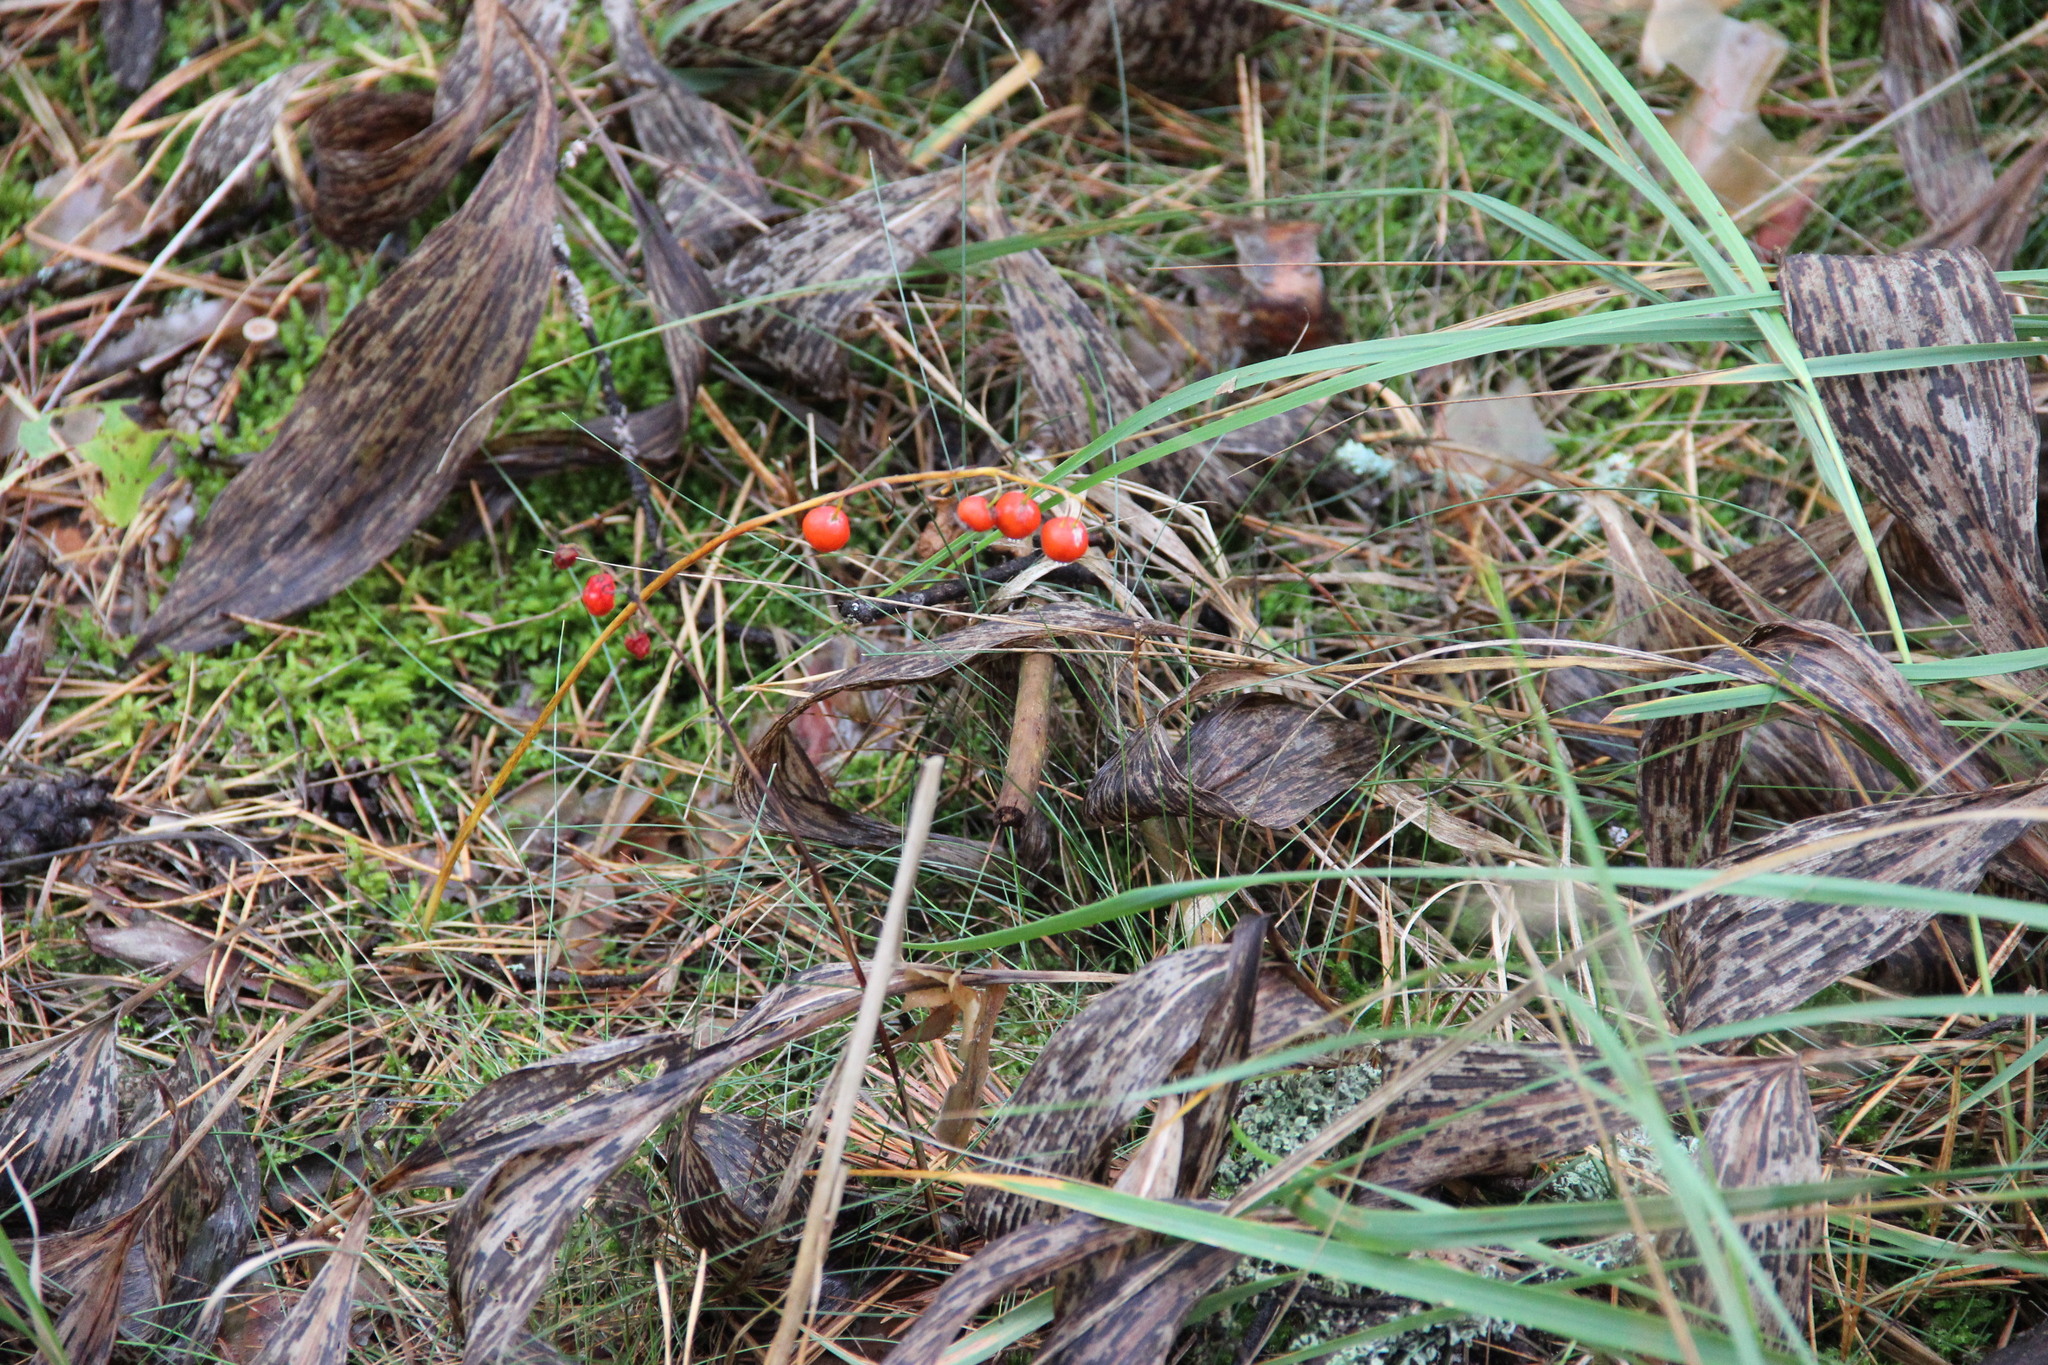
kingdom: Plantae
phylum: Tracheophyta
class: Liliopsida
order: Asparagales
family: Asparagaceae
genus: Convallaria
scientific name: Convallaria majalis
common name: Lily-of-the-valley
